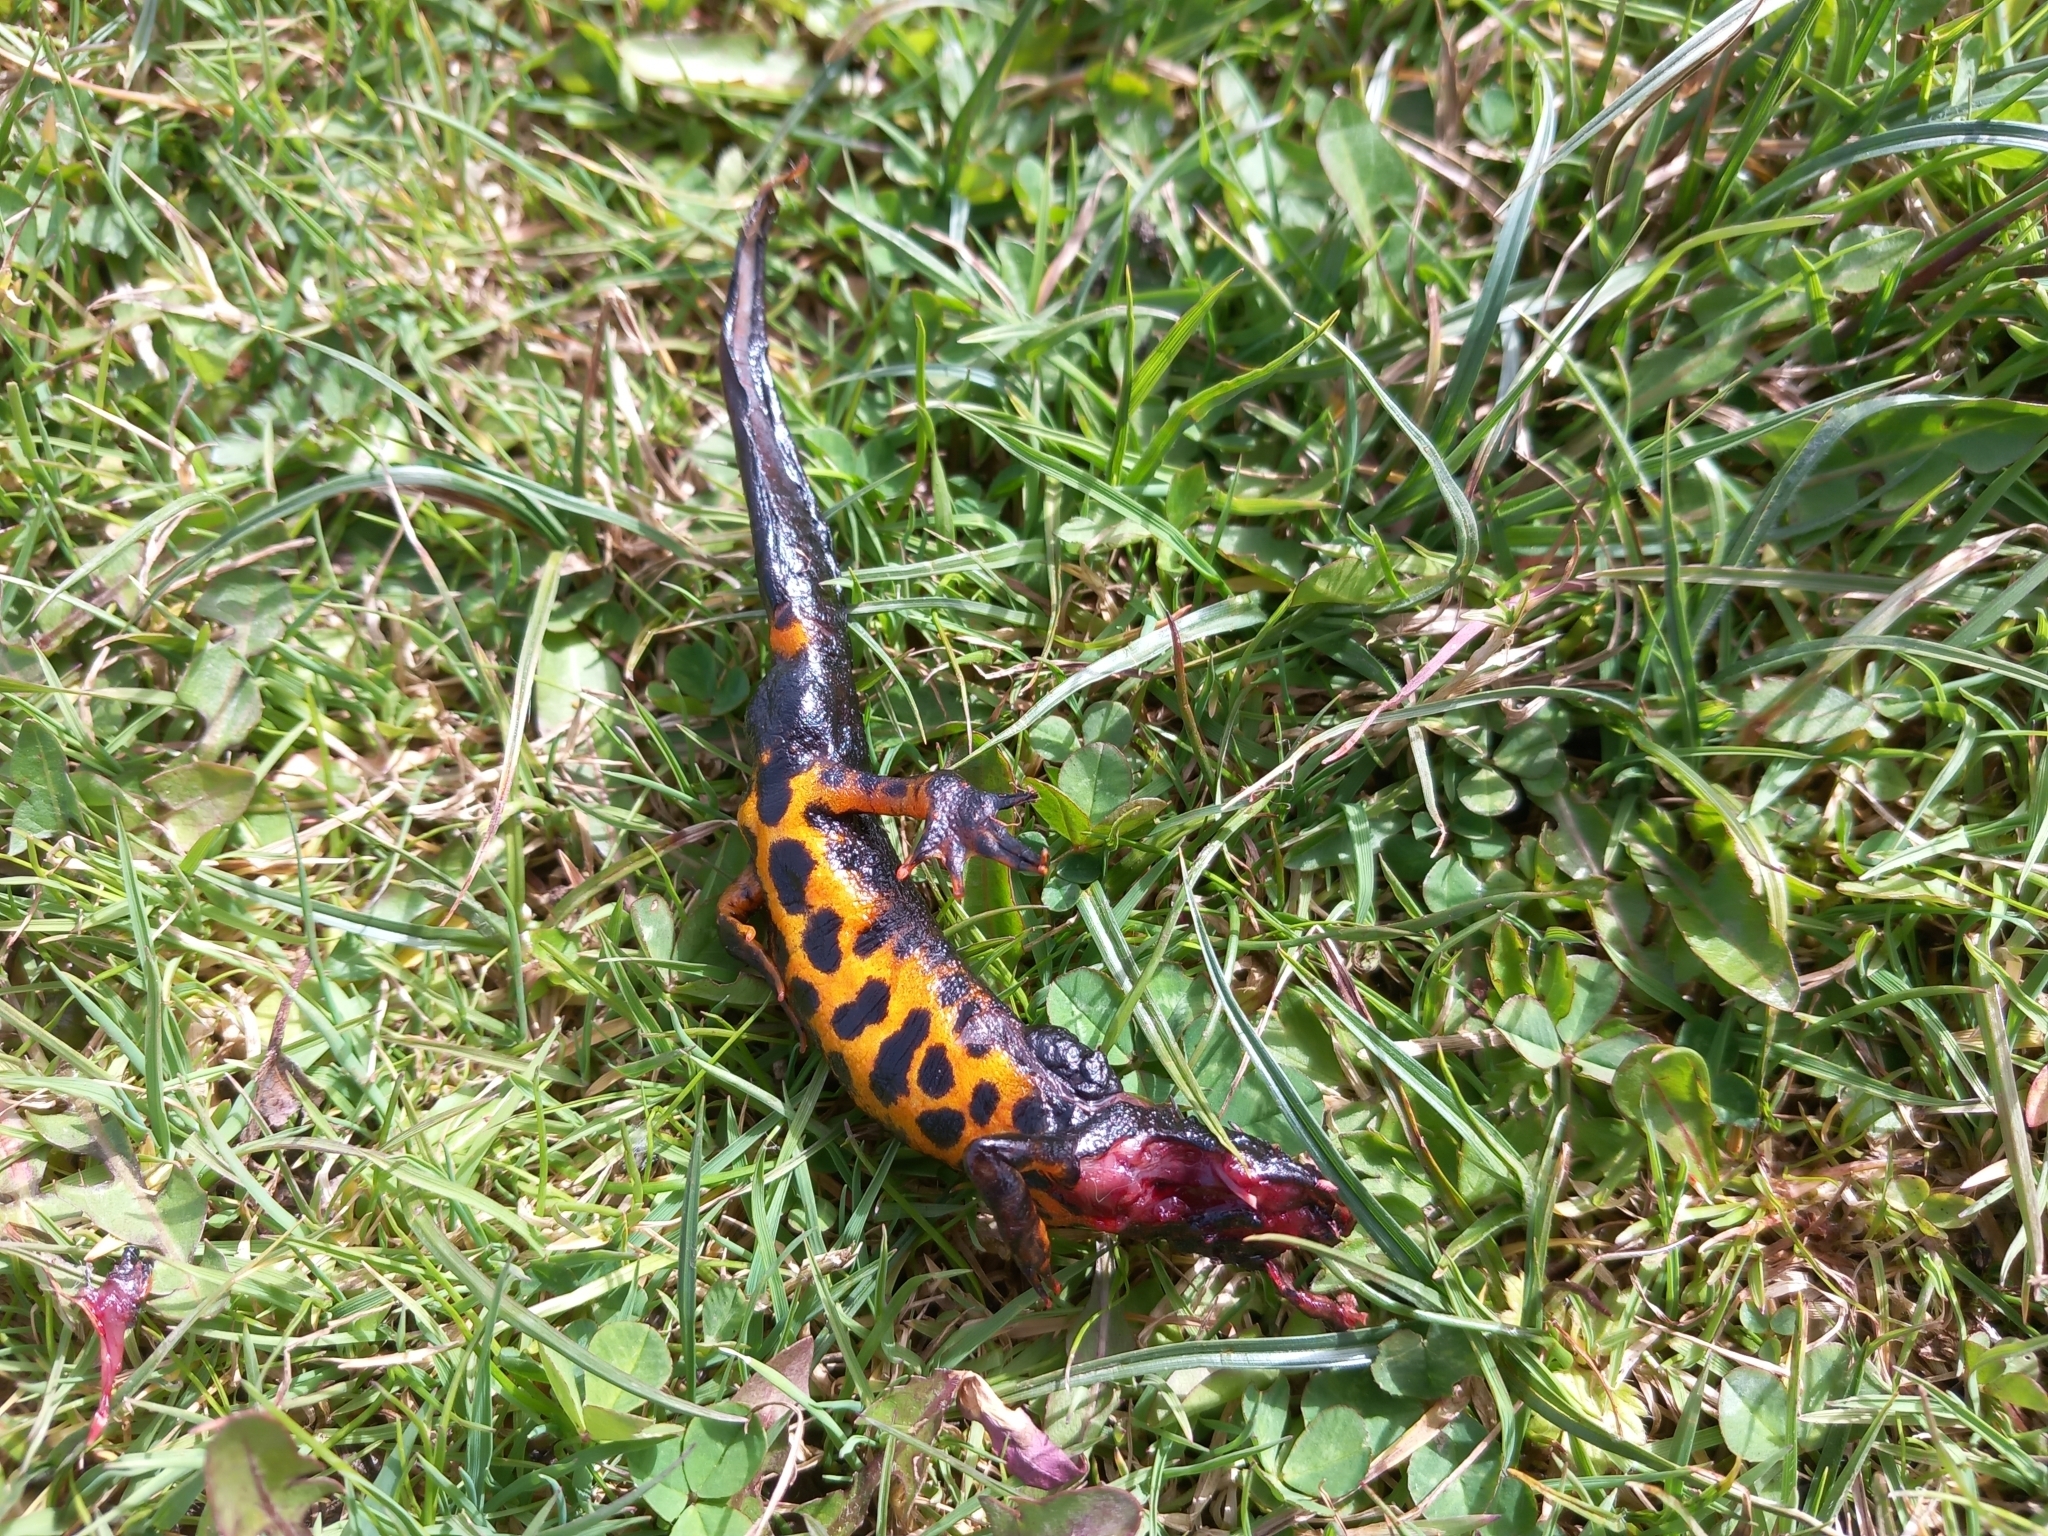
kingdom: Animalia
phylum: Chordata
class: Amphibia
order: Caudata
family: Salamandridae
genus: Triturus
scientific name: Triturus carnifex
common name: Italian crested newt
